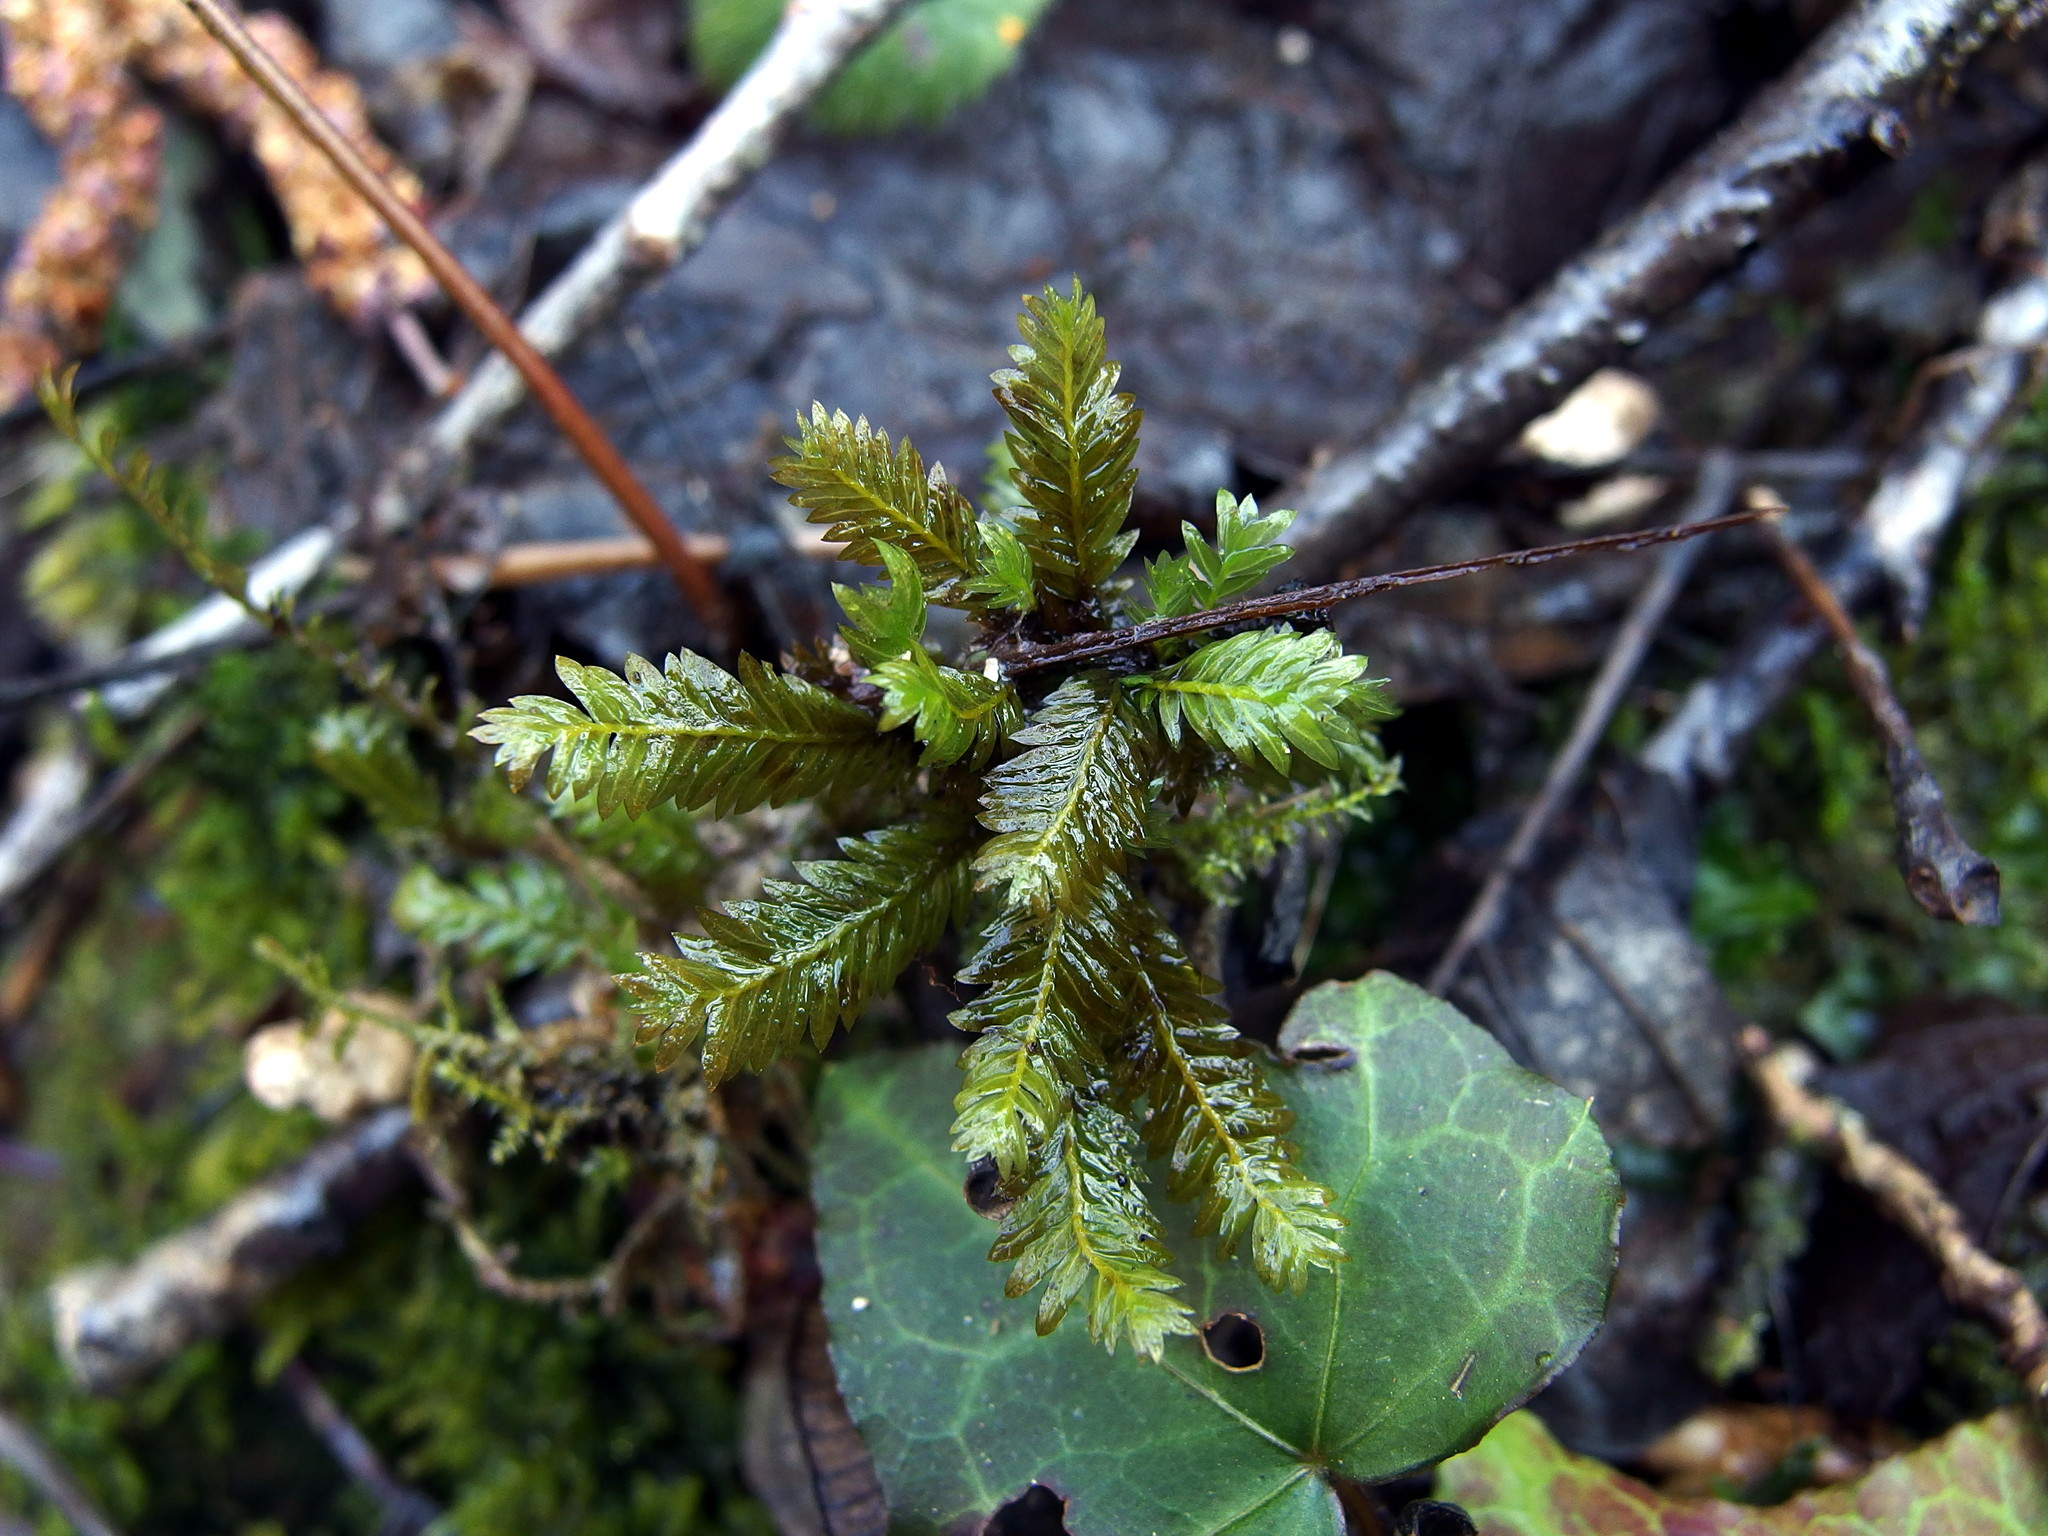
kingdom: Plantae
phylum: Bryophyta
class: Bryopsida
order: Dicranales
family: Fissidentaceae
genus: Fissidens
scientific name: Fissidens taxifolius
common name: Yew-leaved pocket moss
